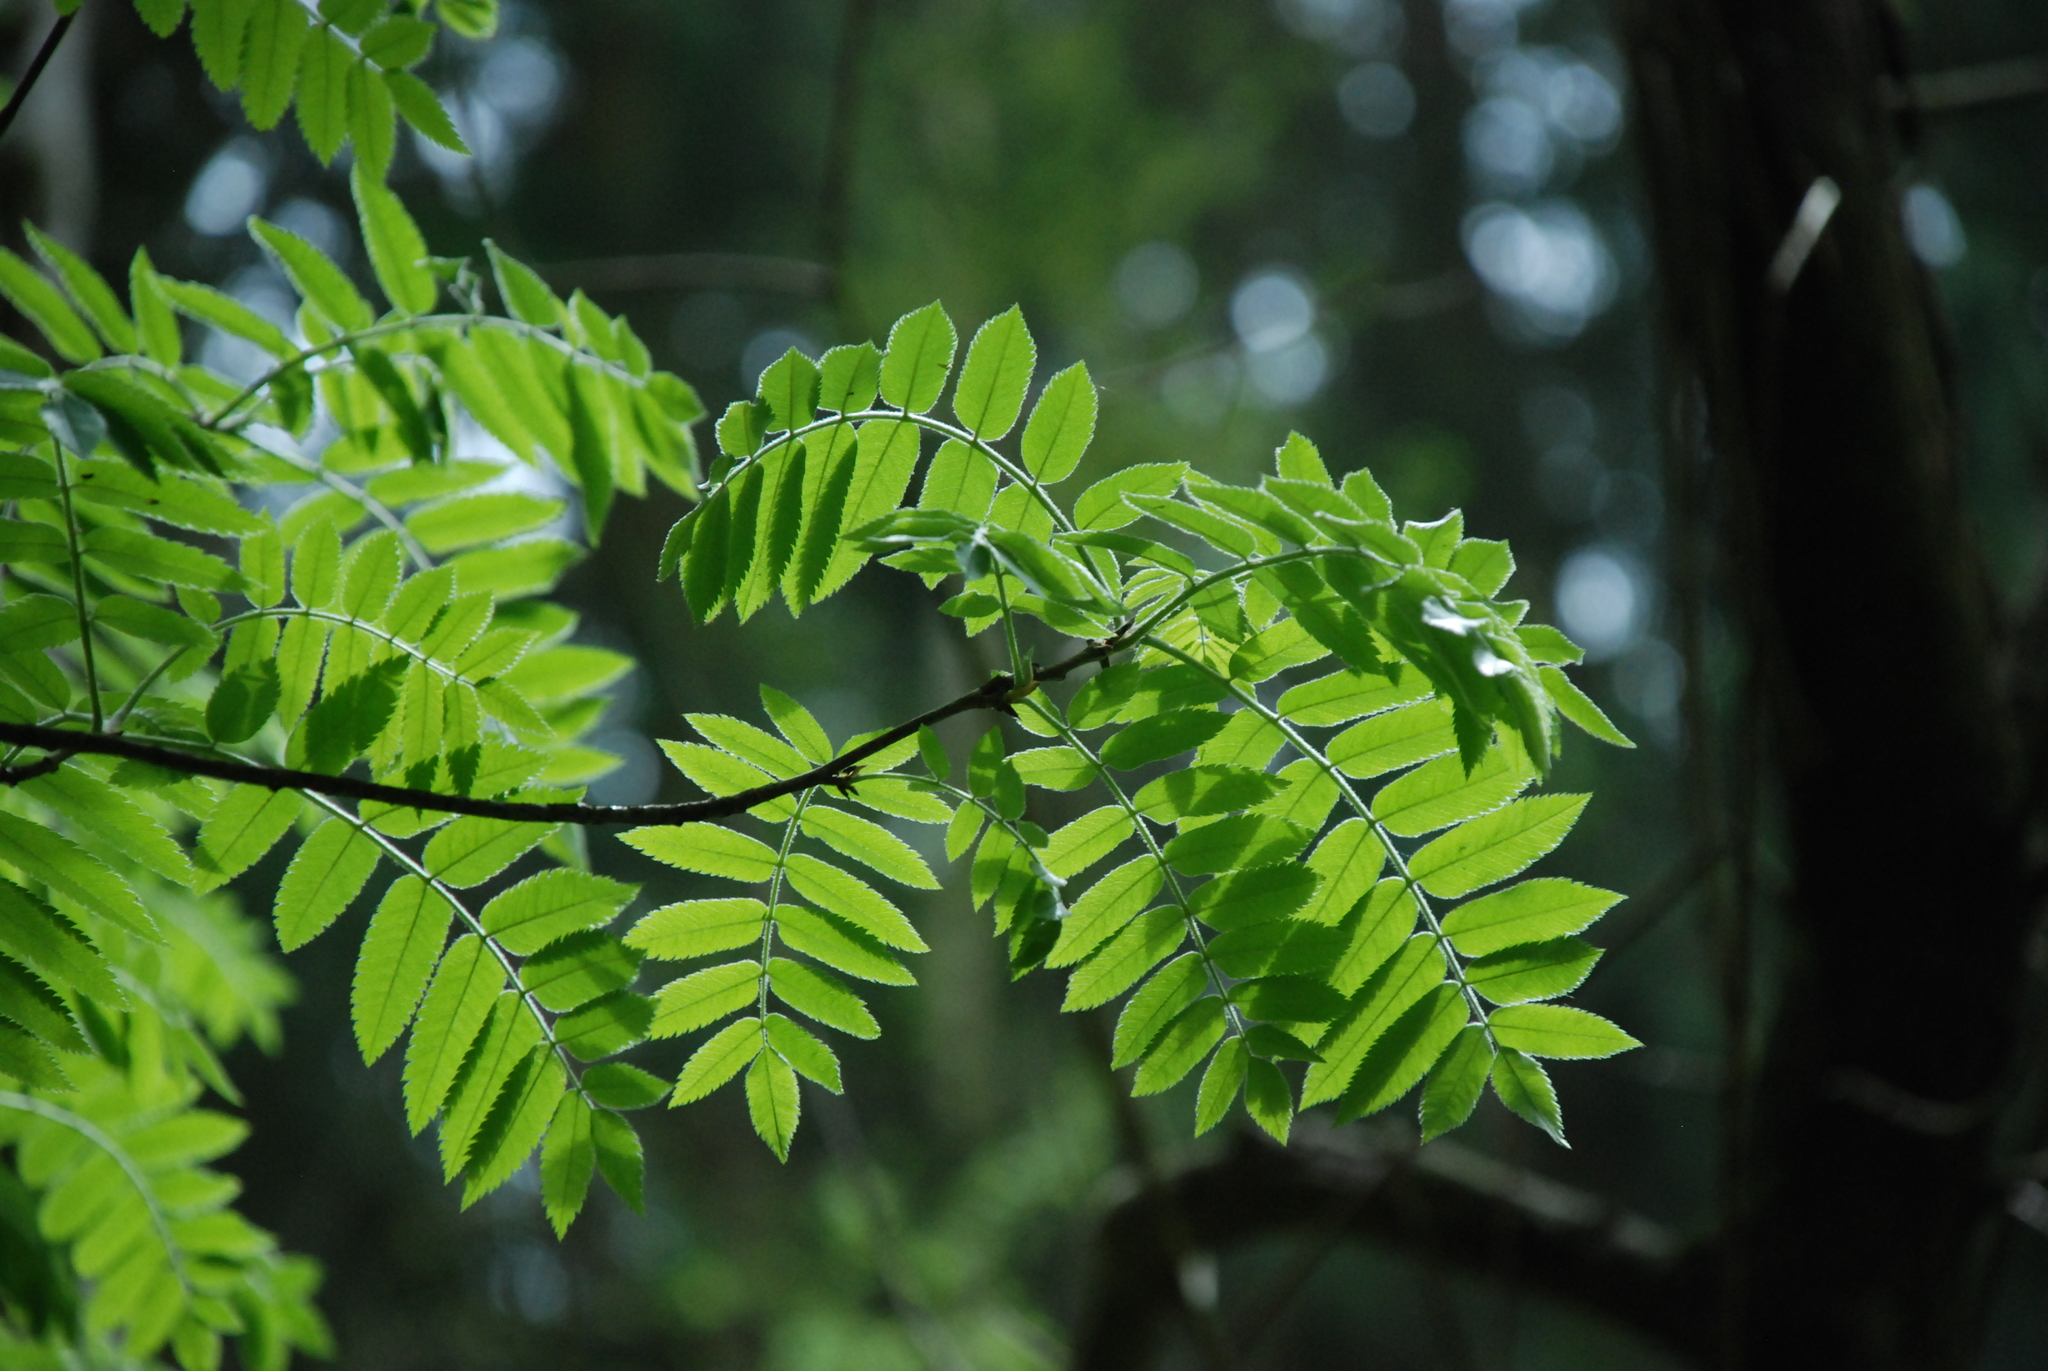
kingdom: Plantae
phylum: Tracheophyta
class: Magnoliopsida
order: Rosales
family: Rosaceae
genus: Sorbus
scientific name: Sorbus aucuparia
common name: Rowan
